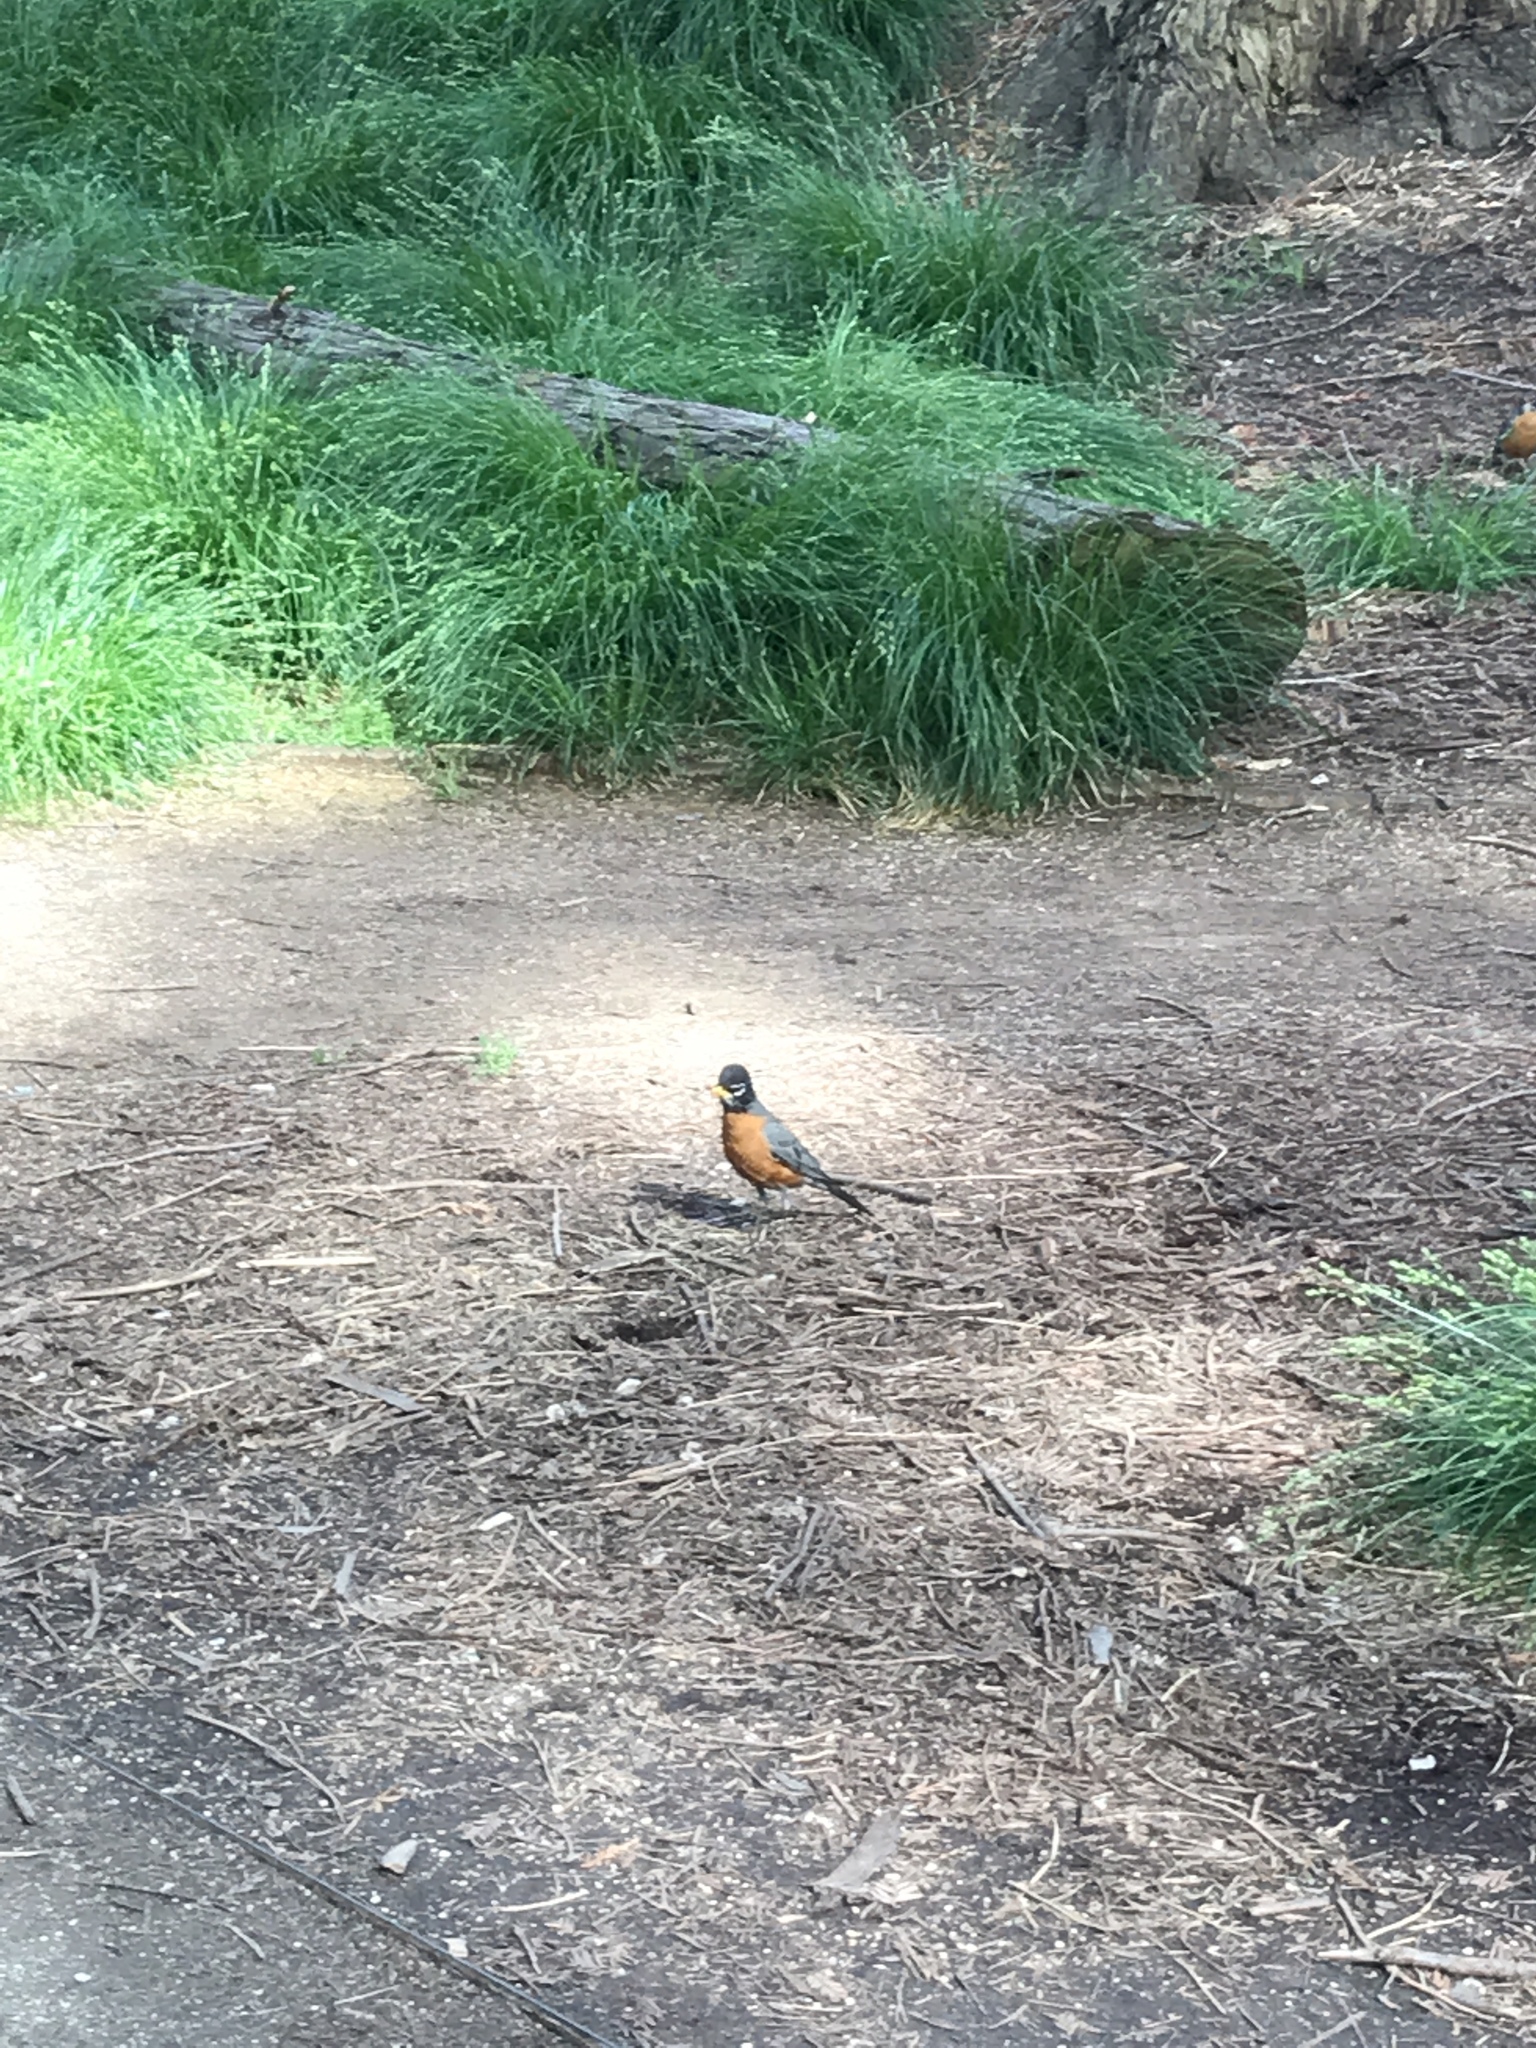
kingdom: Animalia
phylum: Chordata
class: Aves
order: Passeriformes
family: Turdidae
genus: Turdus
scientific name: Turdus migratorius
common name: American robin
